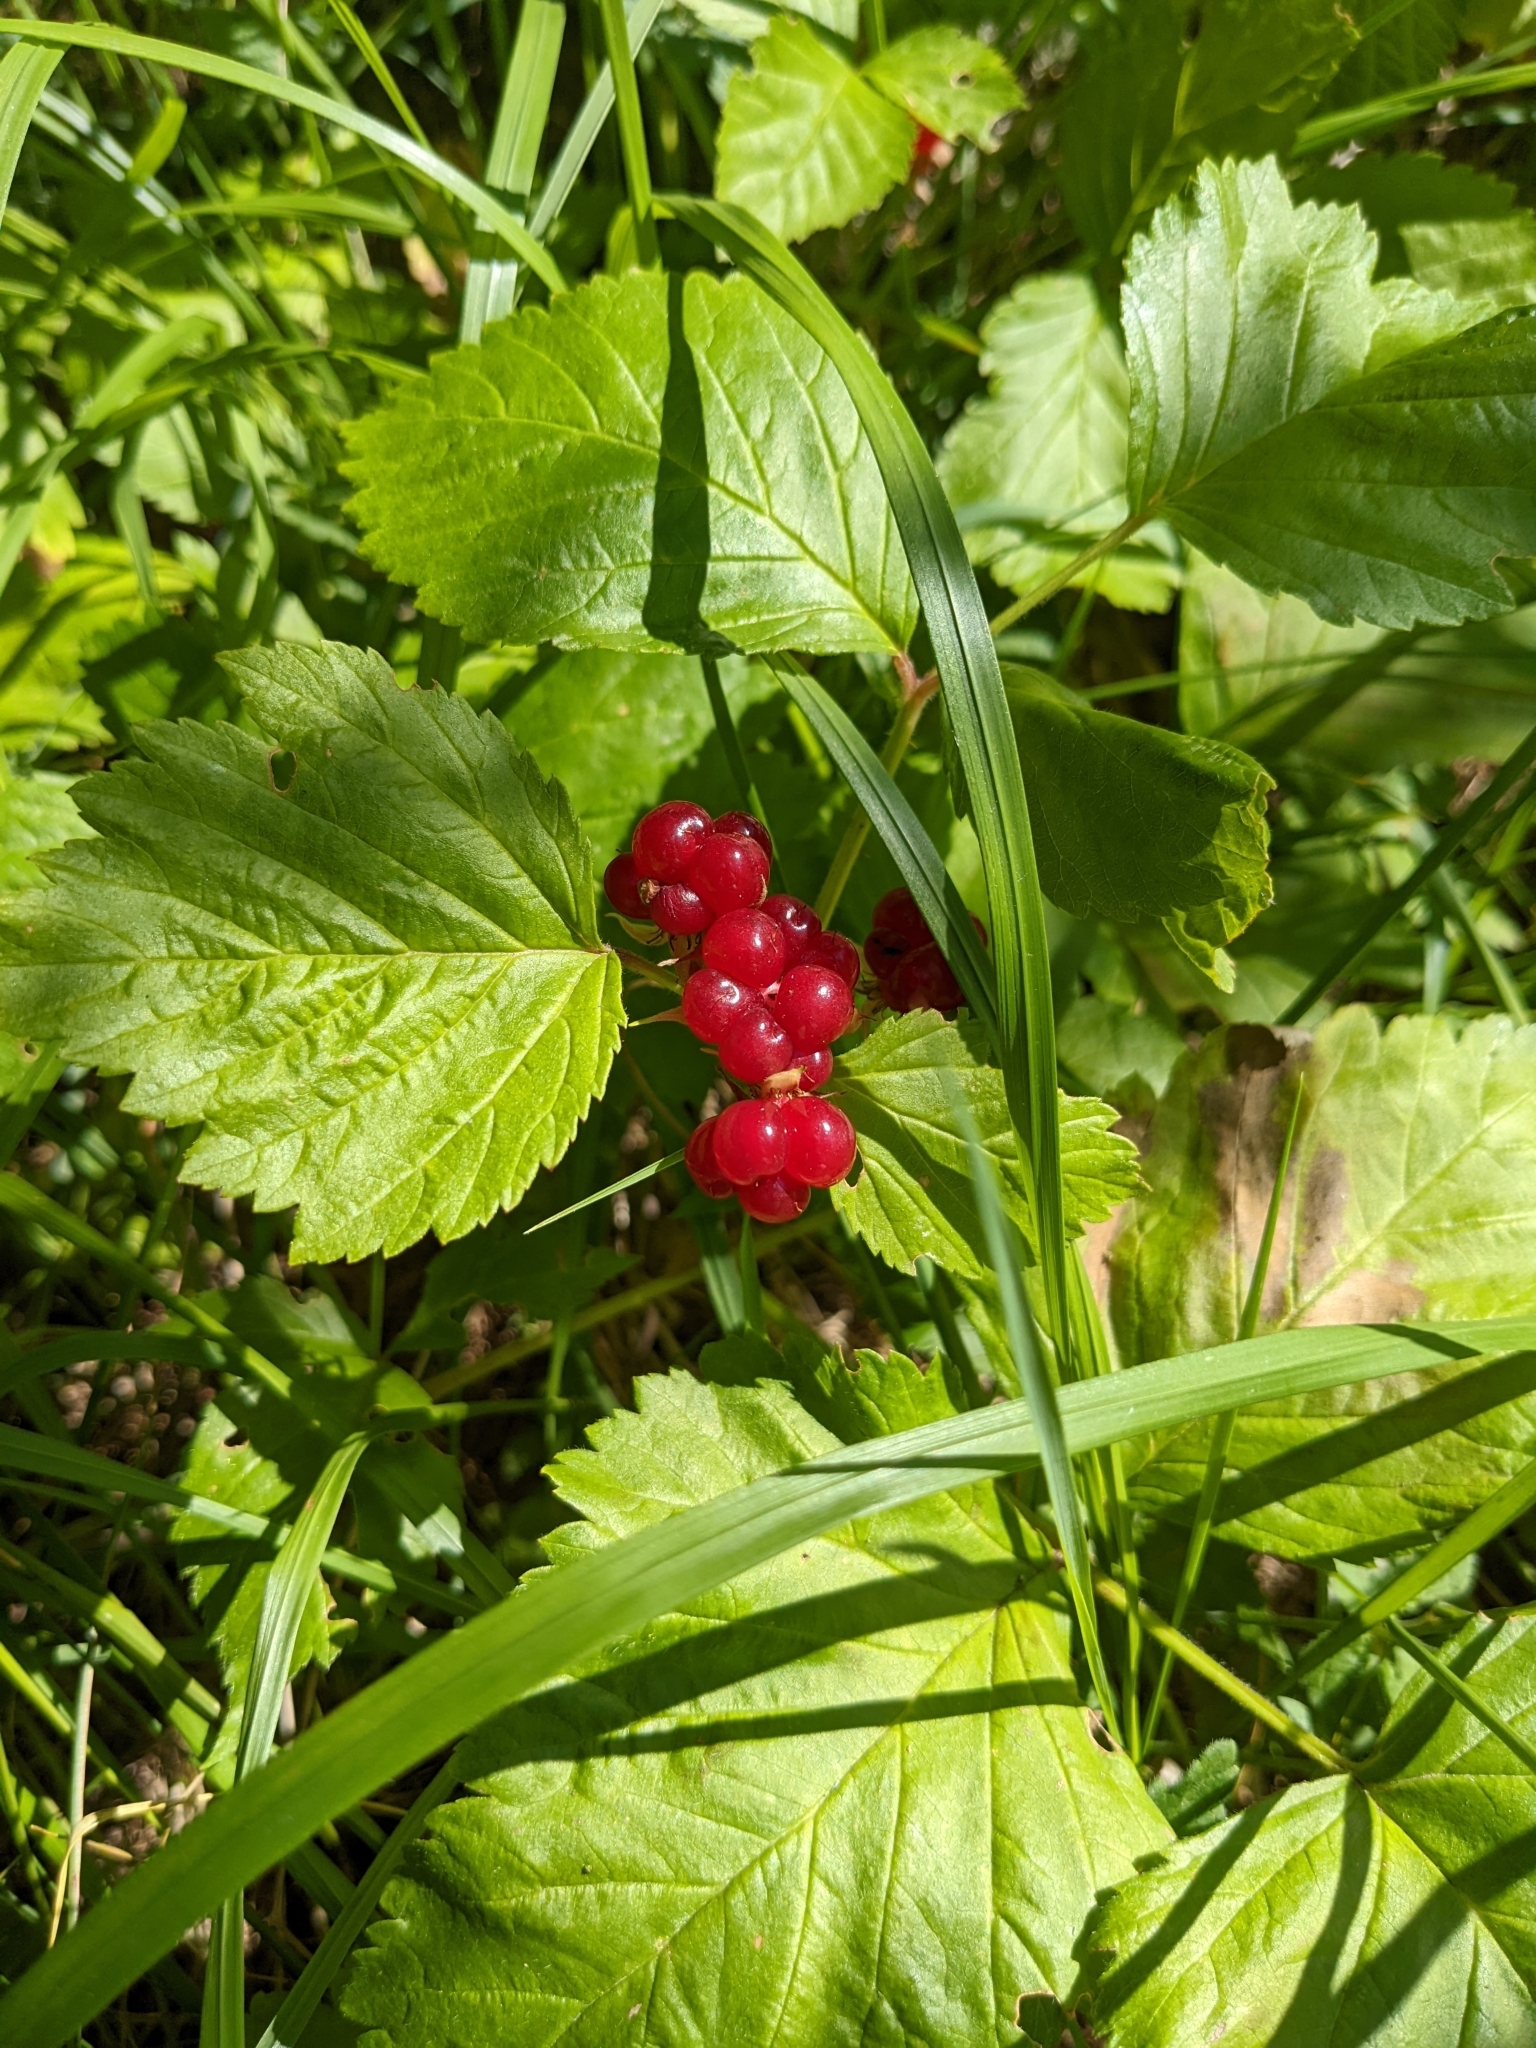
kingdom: Plantae
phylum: Tracheophyta
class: Magnoliopsida
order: Rosales
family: Rosaceae
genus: Rubus
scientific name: Rubus saxatilis
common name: Stone bramble
